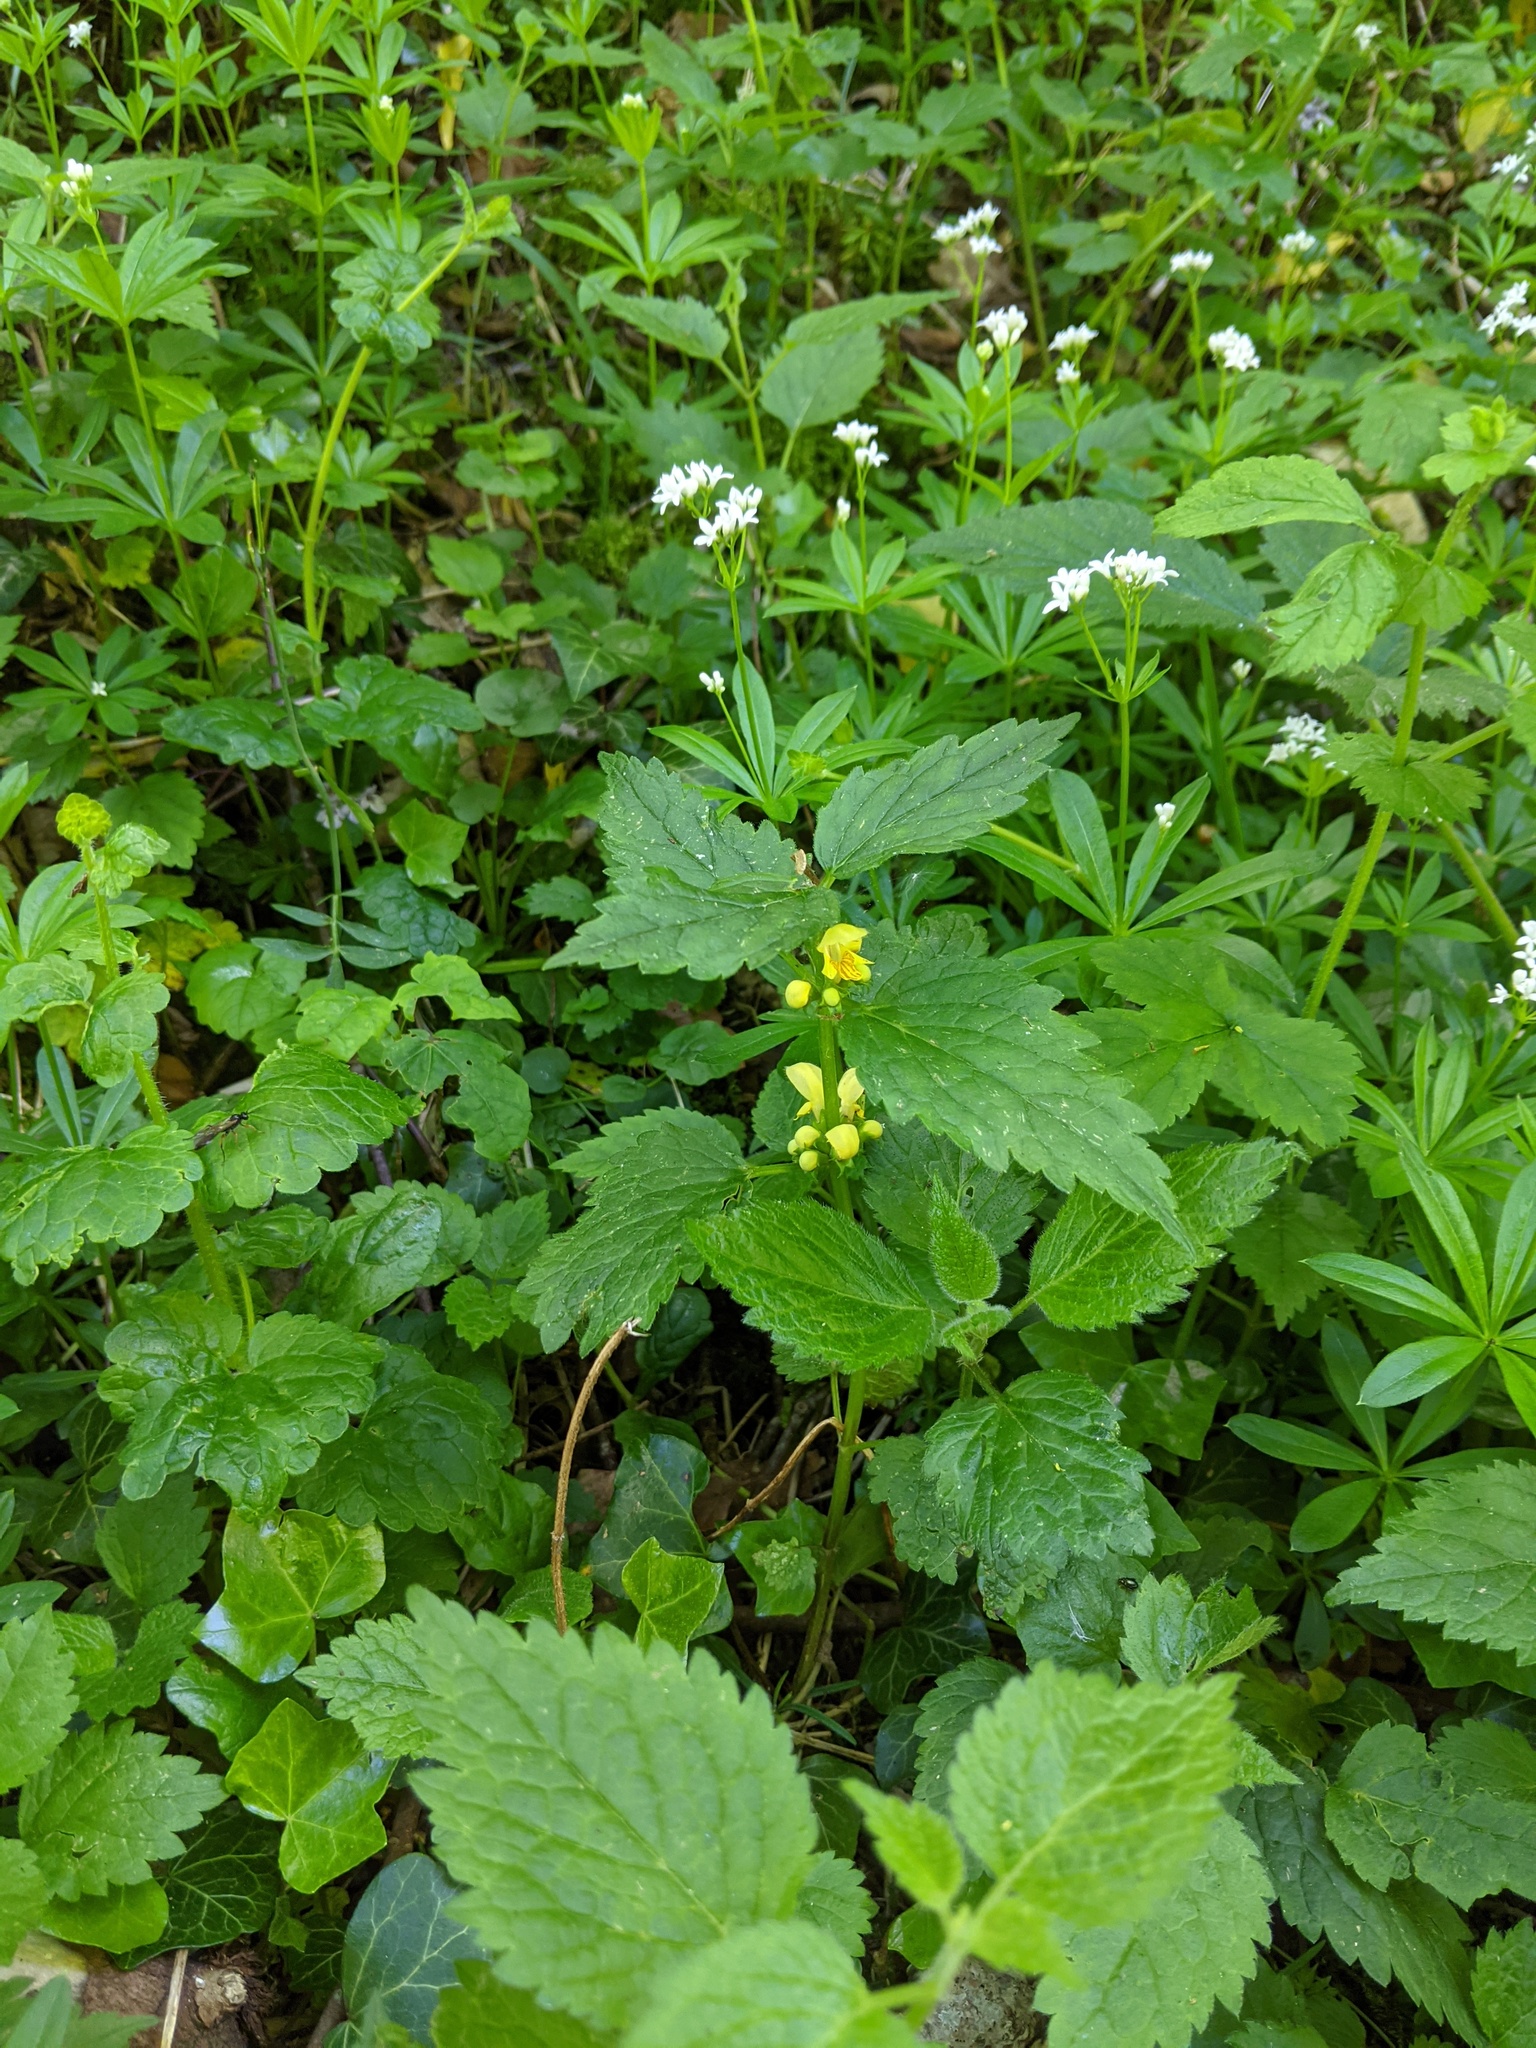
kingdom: Plantae
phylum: Tracheophyta
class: Magnoliopsida
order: Lamiales
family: Lamiaceae
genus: Lamium
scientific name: Lamium galeobdolon
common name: Yellow archangel
